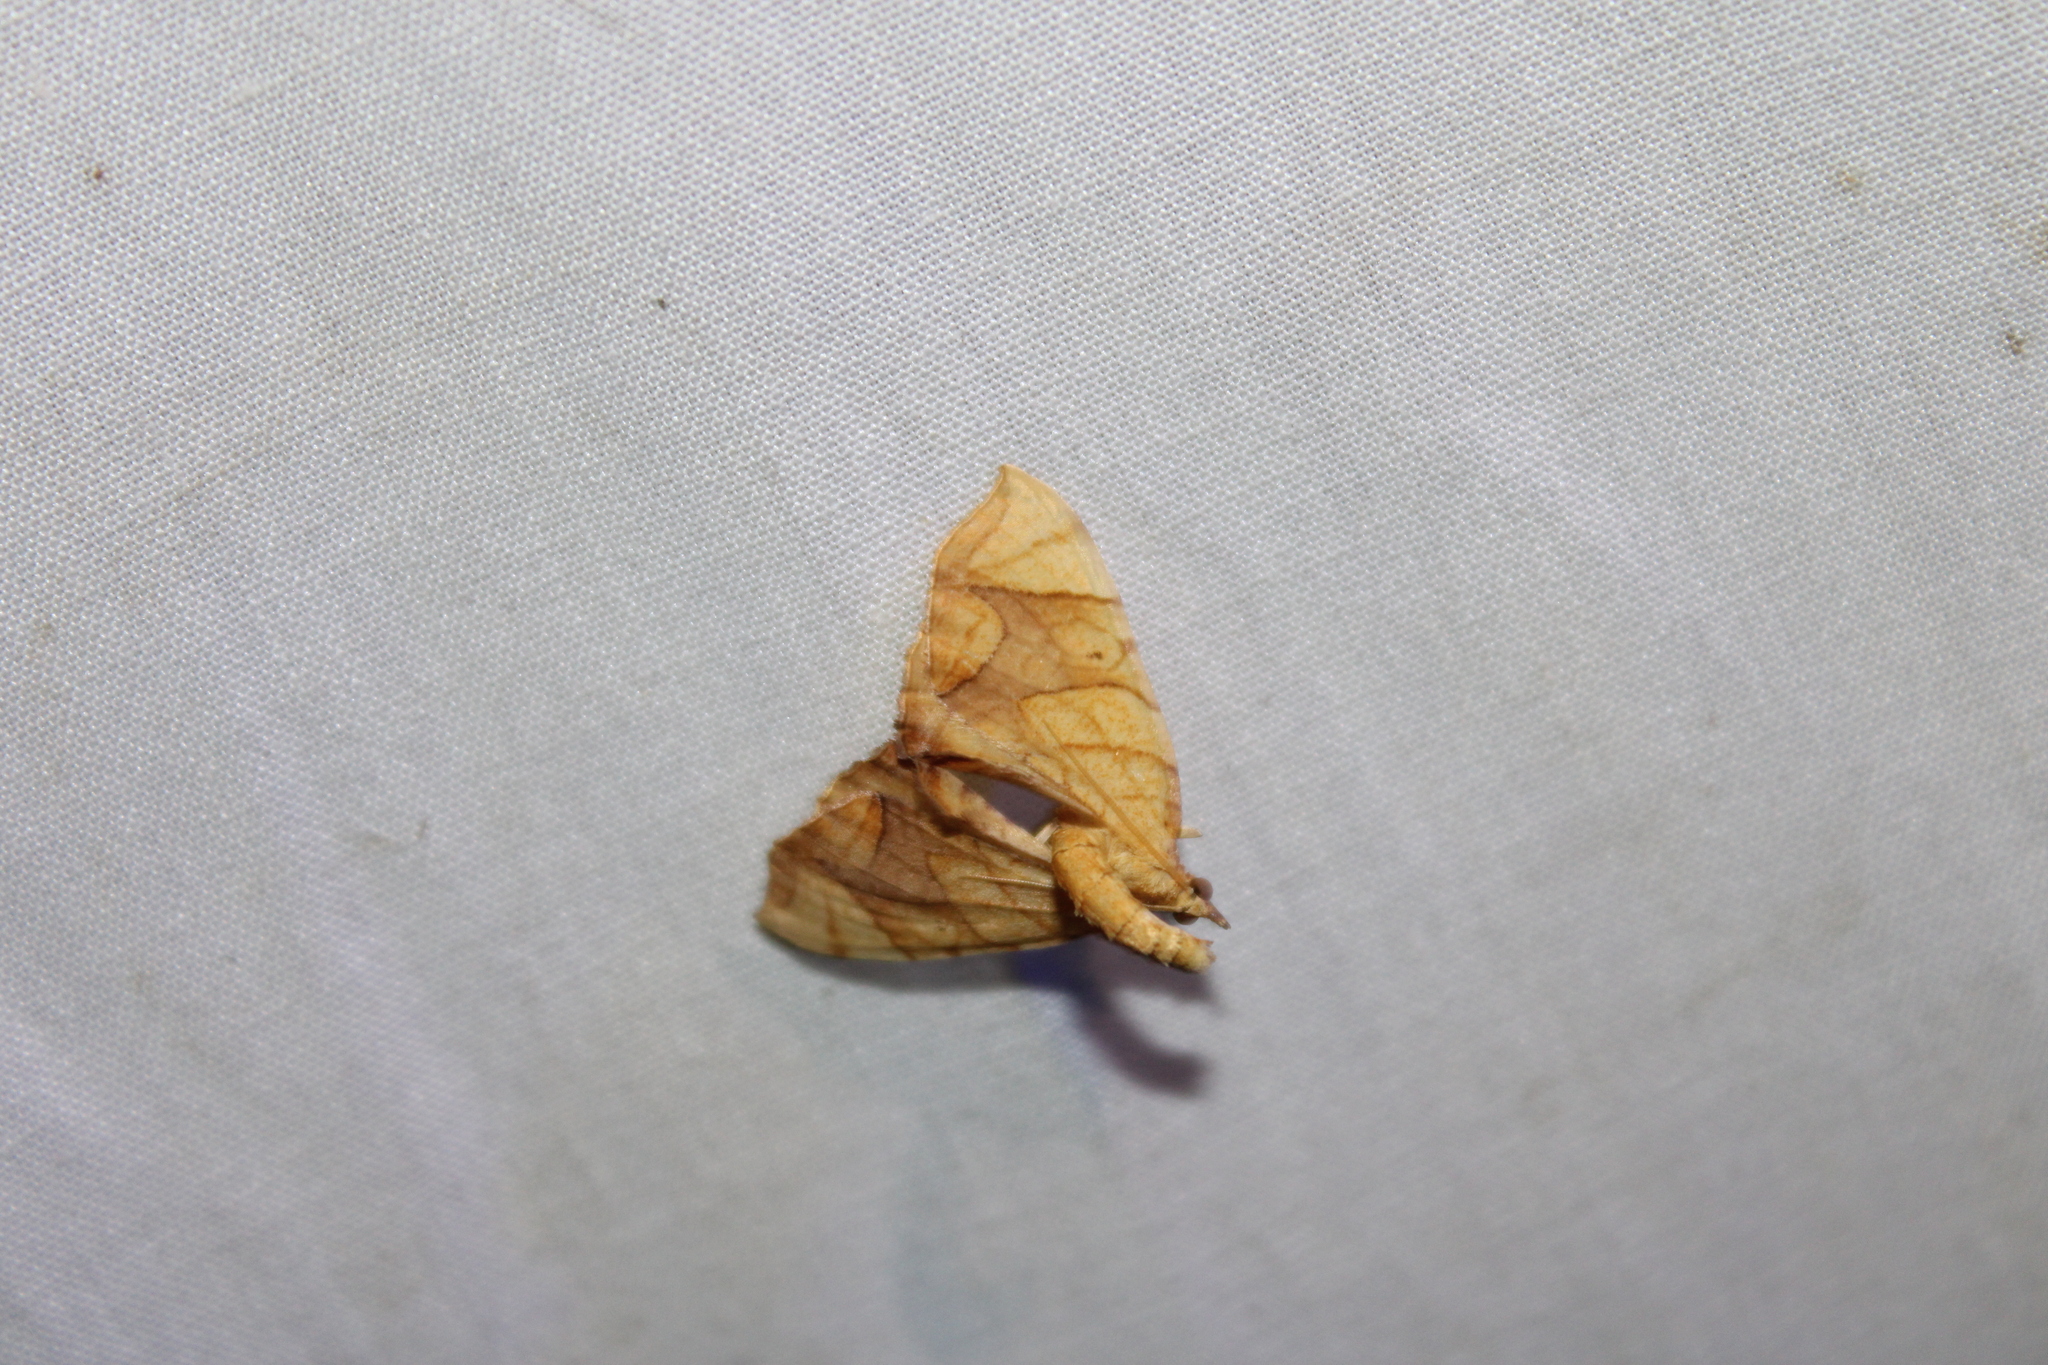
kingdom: Animalia
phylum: Arthropoda
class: Insecta
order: Lepidoptera
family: Geometridae
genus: Eulithis
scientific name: Eulithis
